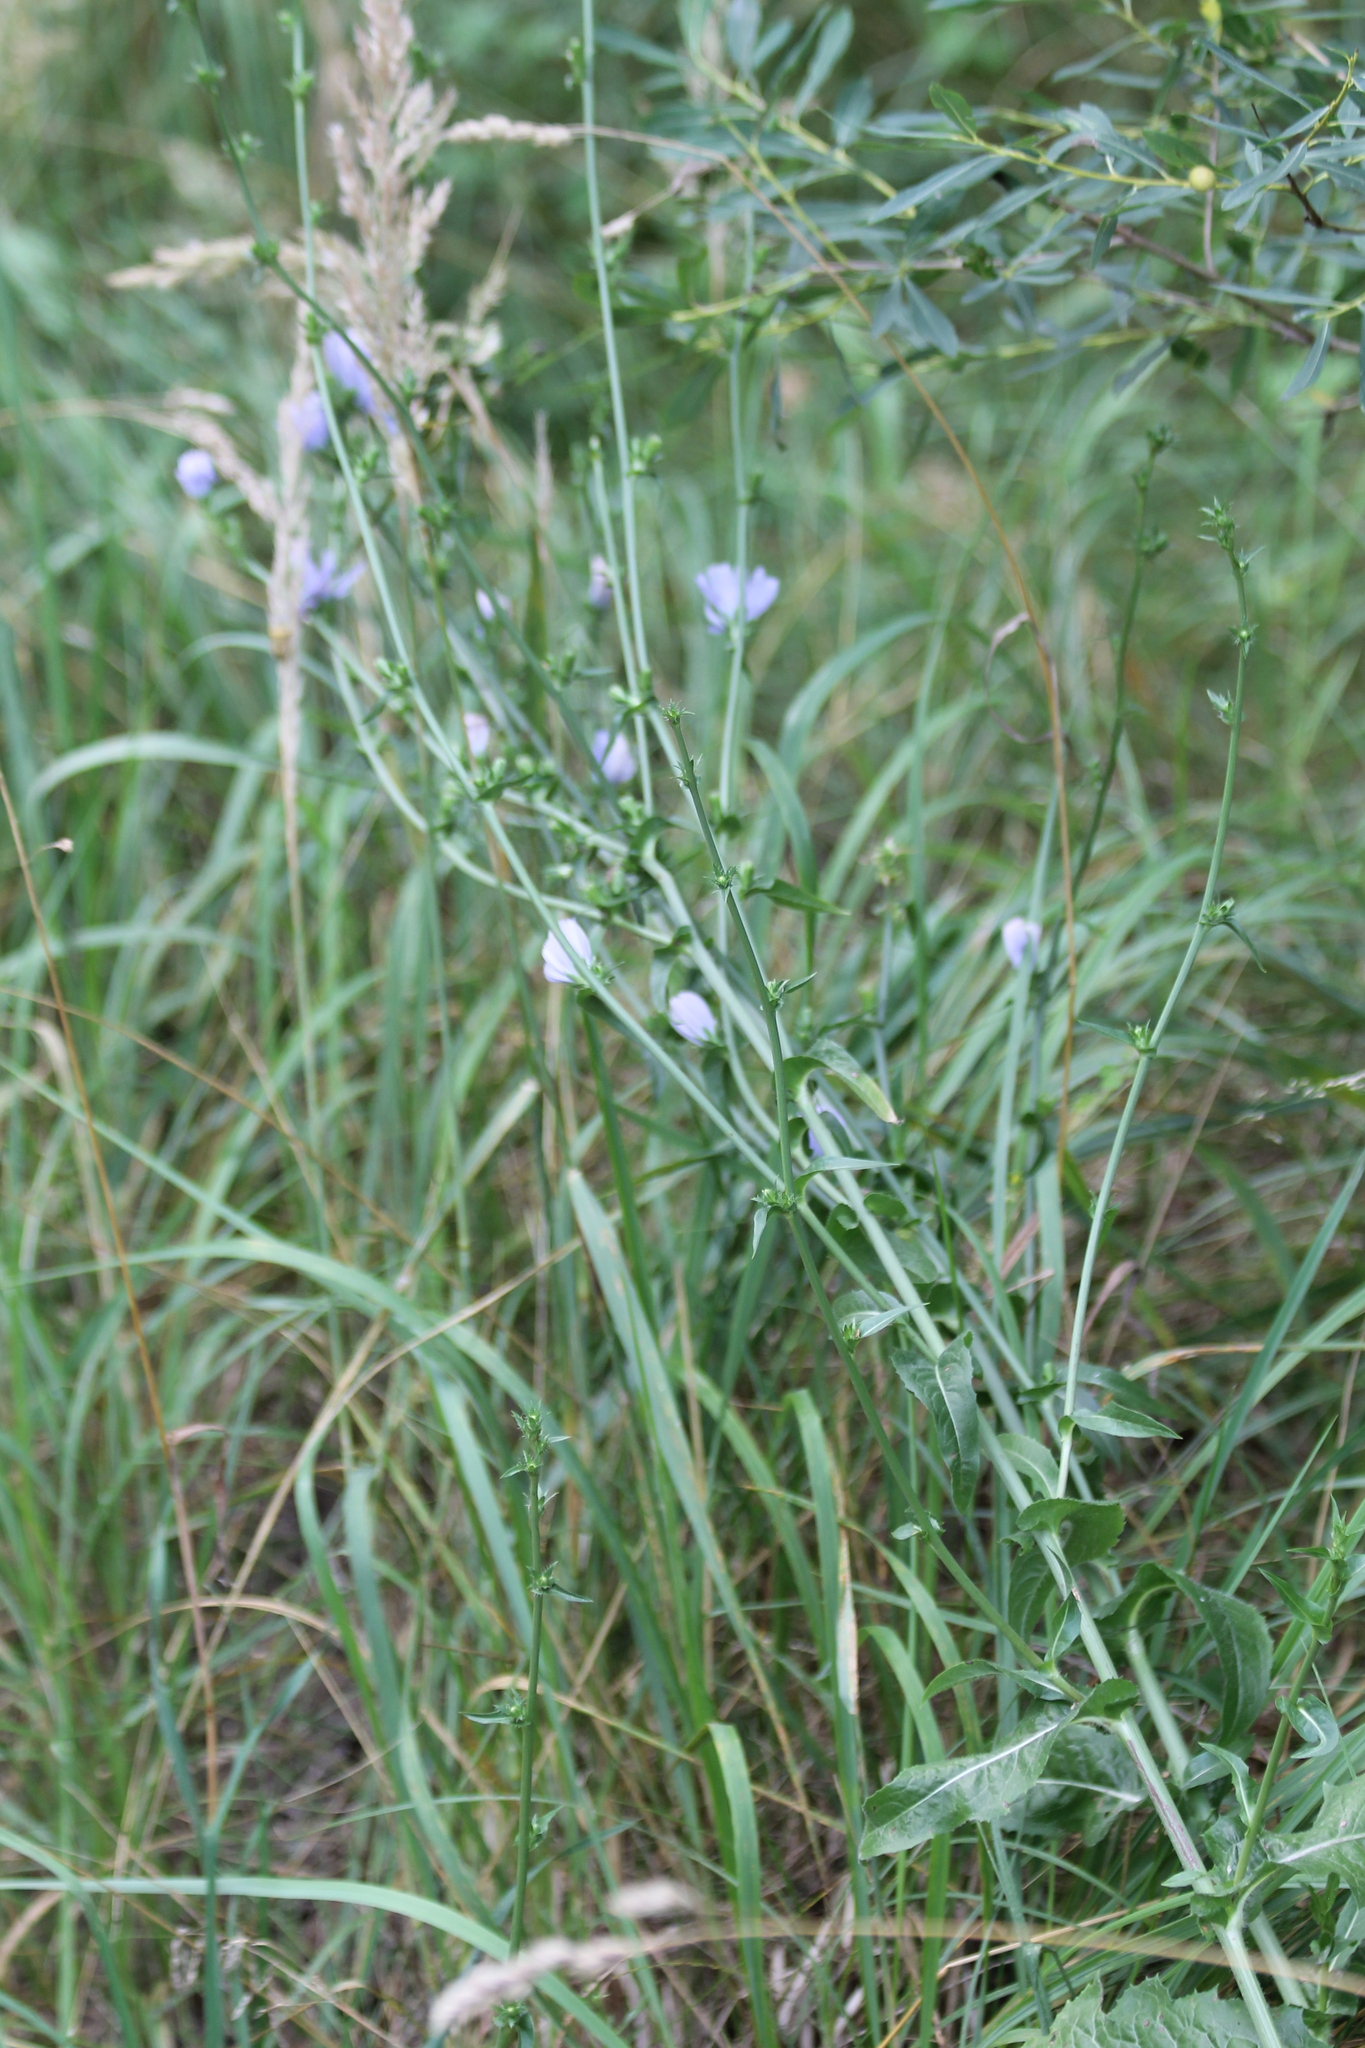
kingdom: Plantae
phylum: Tracheophyta
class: Magnoliopsida
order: Asterales
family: Asteraceae
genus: Cichorium
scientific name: Cichorium intybus
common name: Chicory
